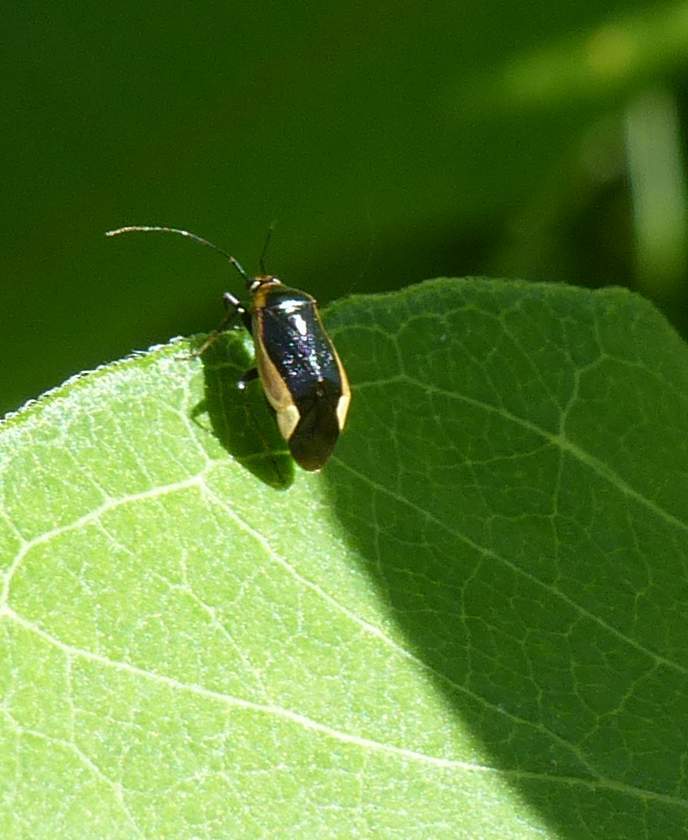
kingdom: Animalia
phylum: Arthropoda
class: Insecta
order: Hemiptera
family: Miridae
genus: Metriorrhynchomiris
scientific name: Metriorrhynchomiris dislocatus
